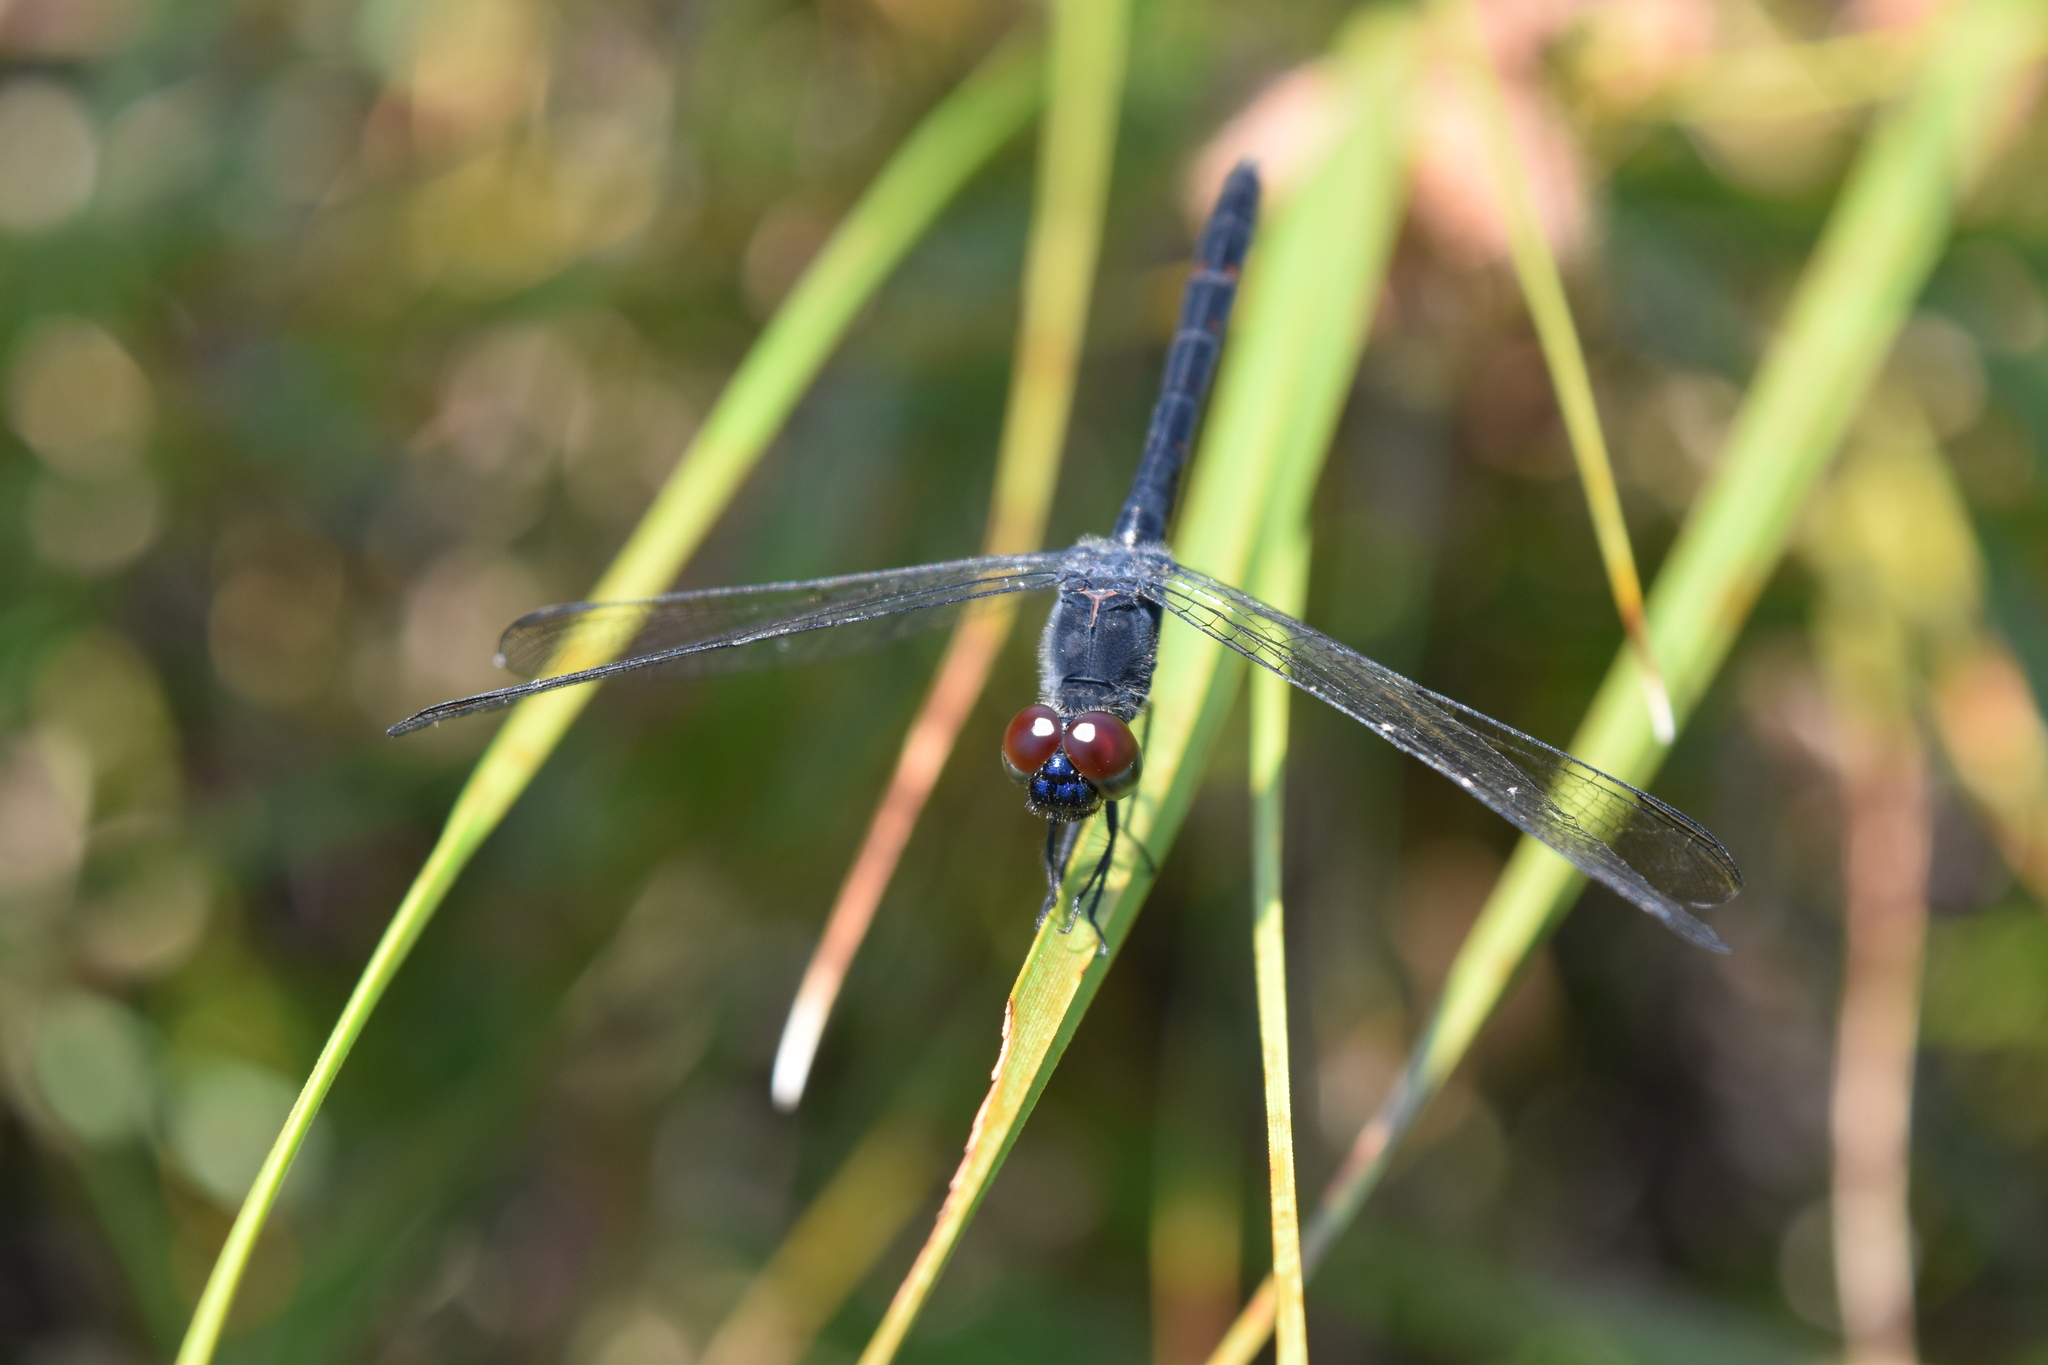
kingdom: Animalia
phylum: Arthropoda
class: Insecta
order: Odonata
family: Libellulidae
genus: Erythrodiplax
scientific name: Erythrodiplax berenice
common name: Seaside dragonlet
